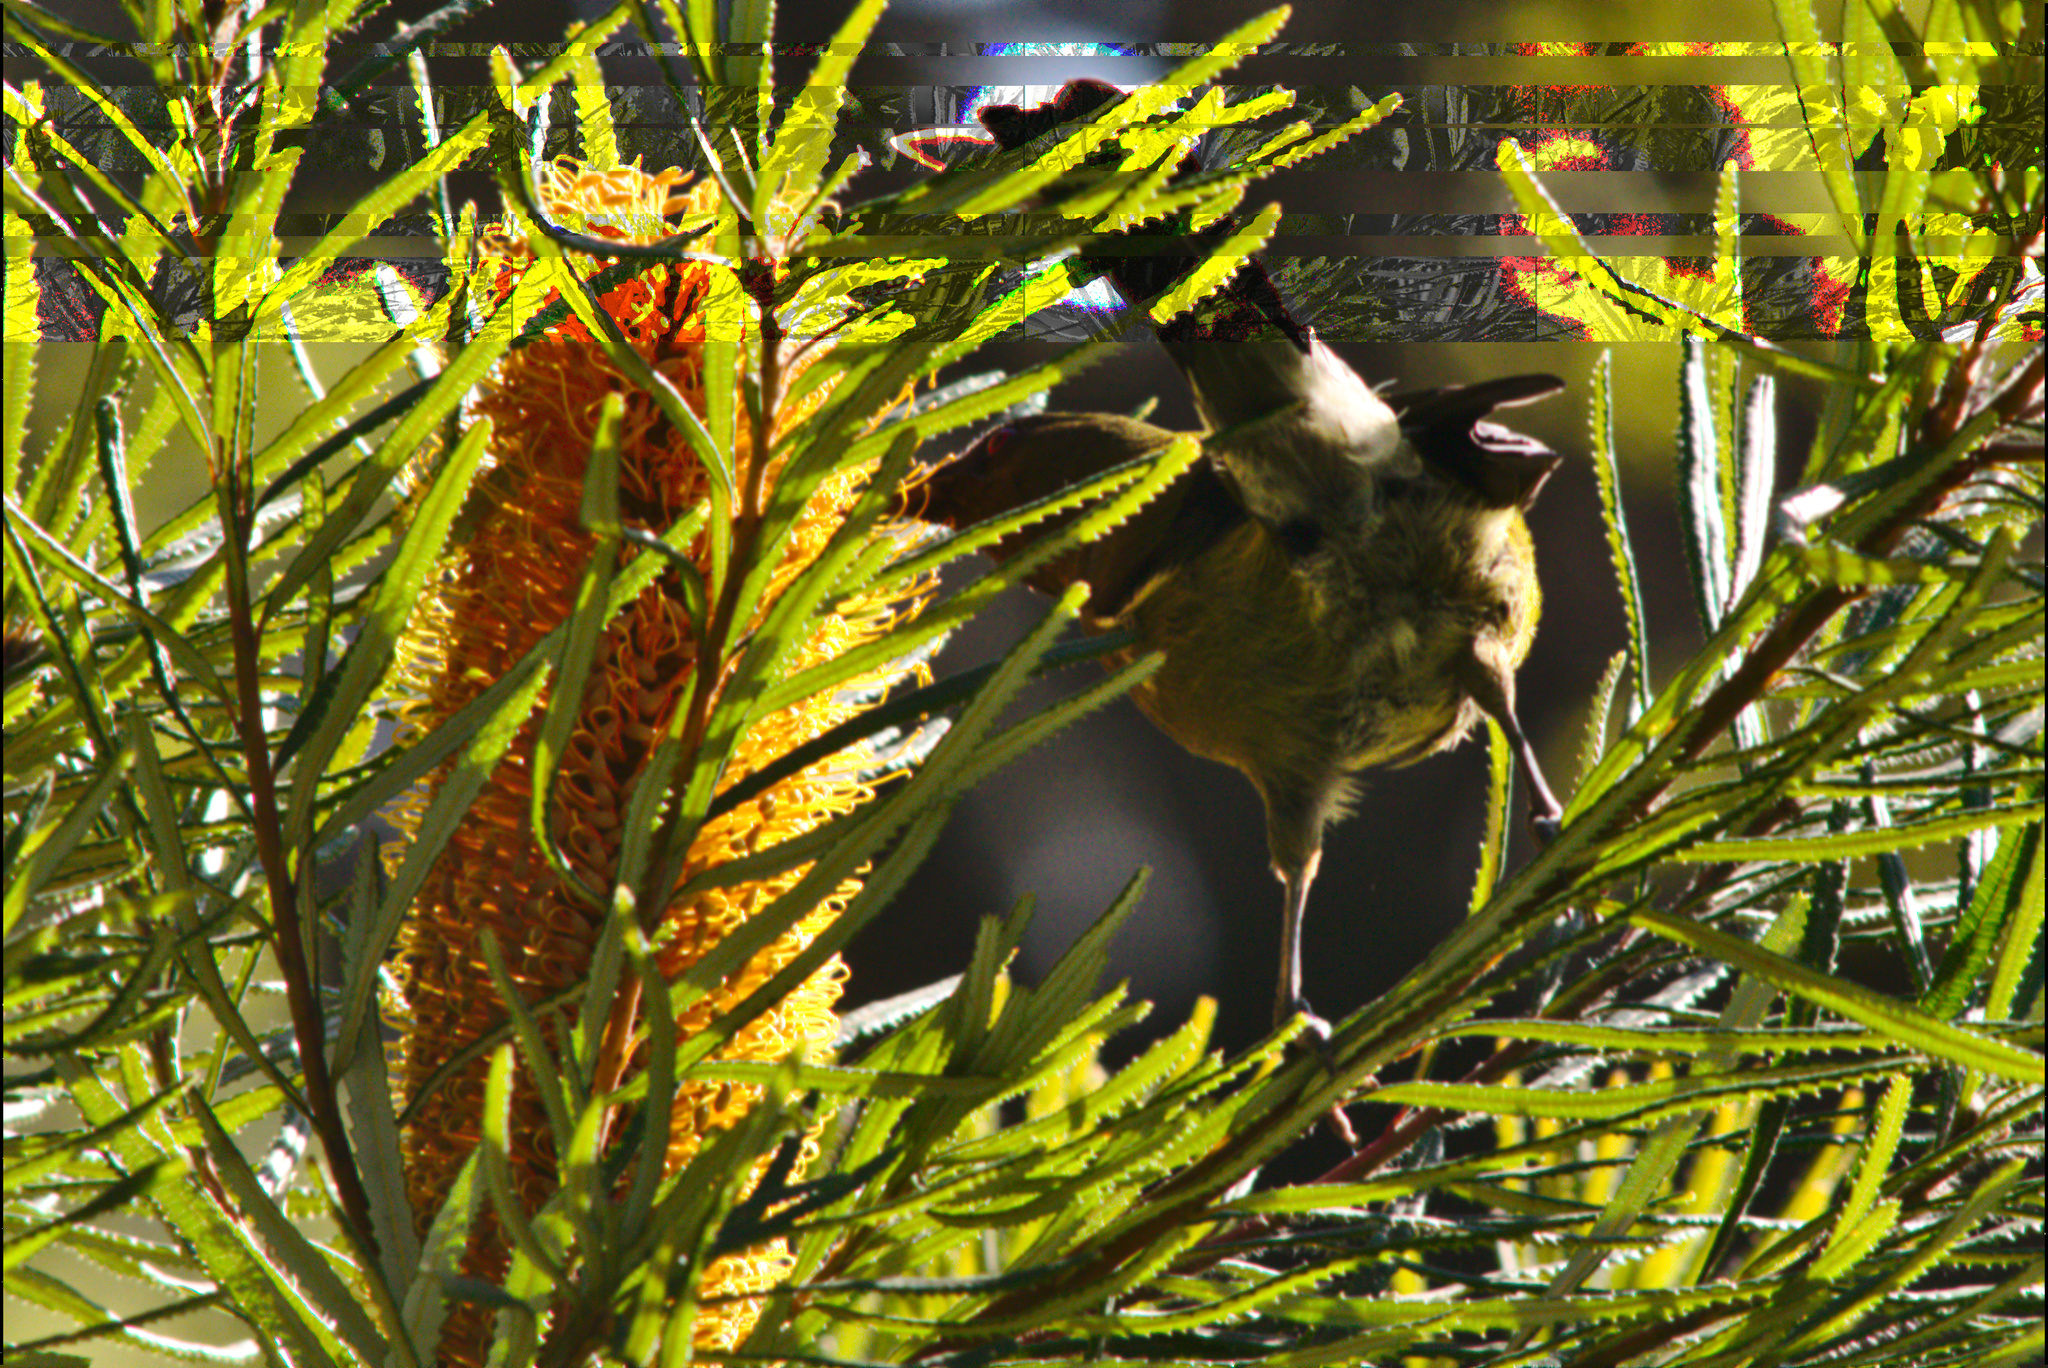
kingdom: Animalia
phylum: Chordata
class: Aves
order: Passeriformes
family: Meliphagidae
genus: Anthornis
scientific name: Anthornis melanura
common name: New zealand bellbird
